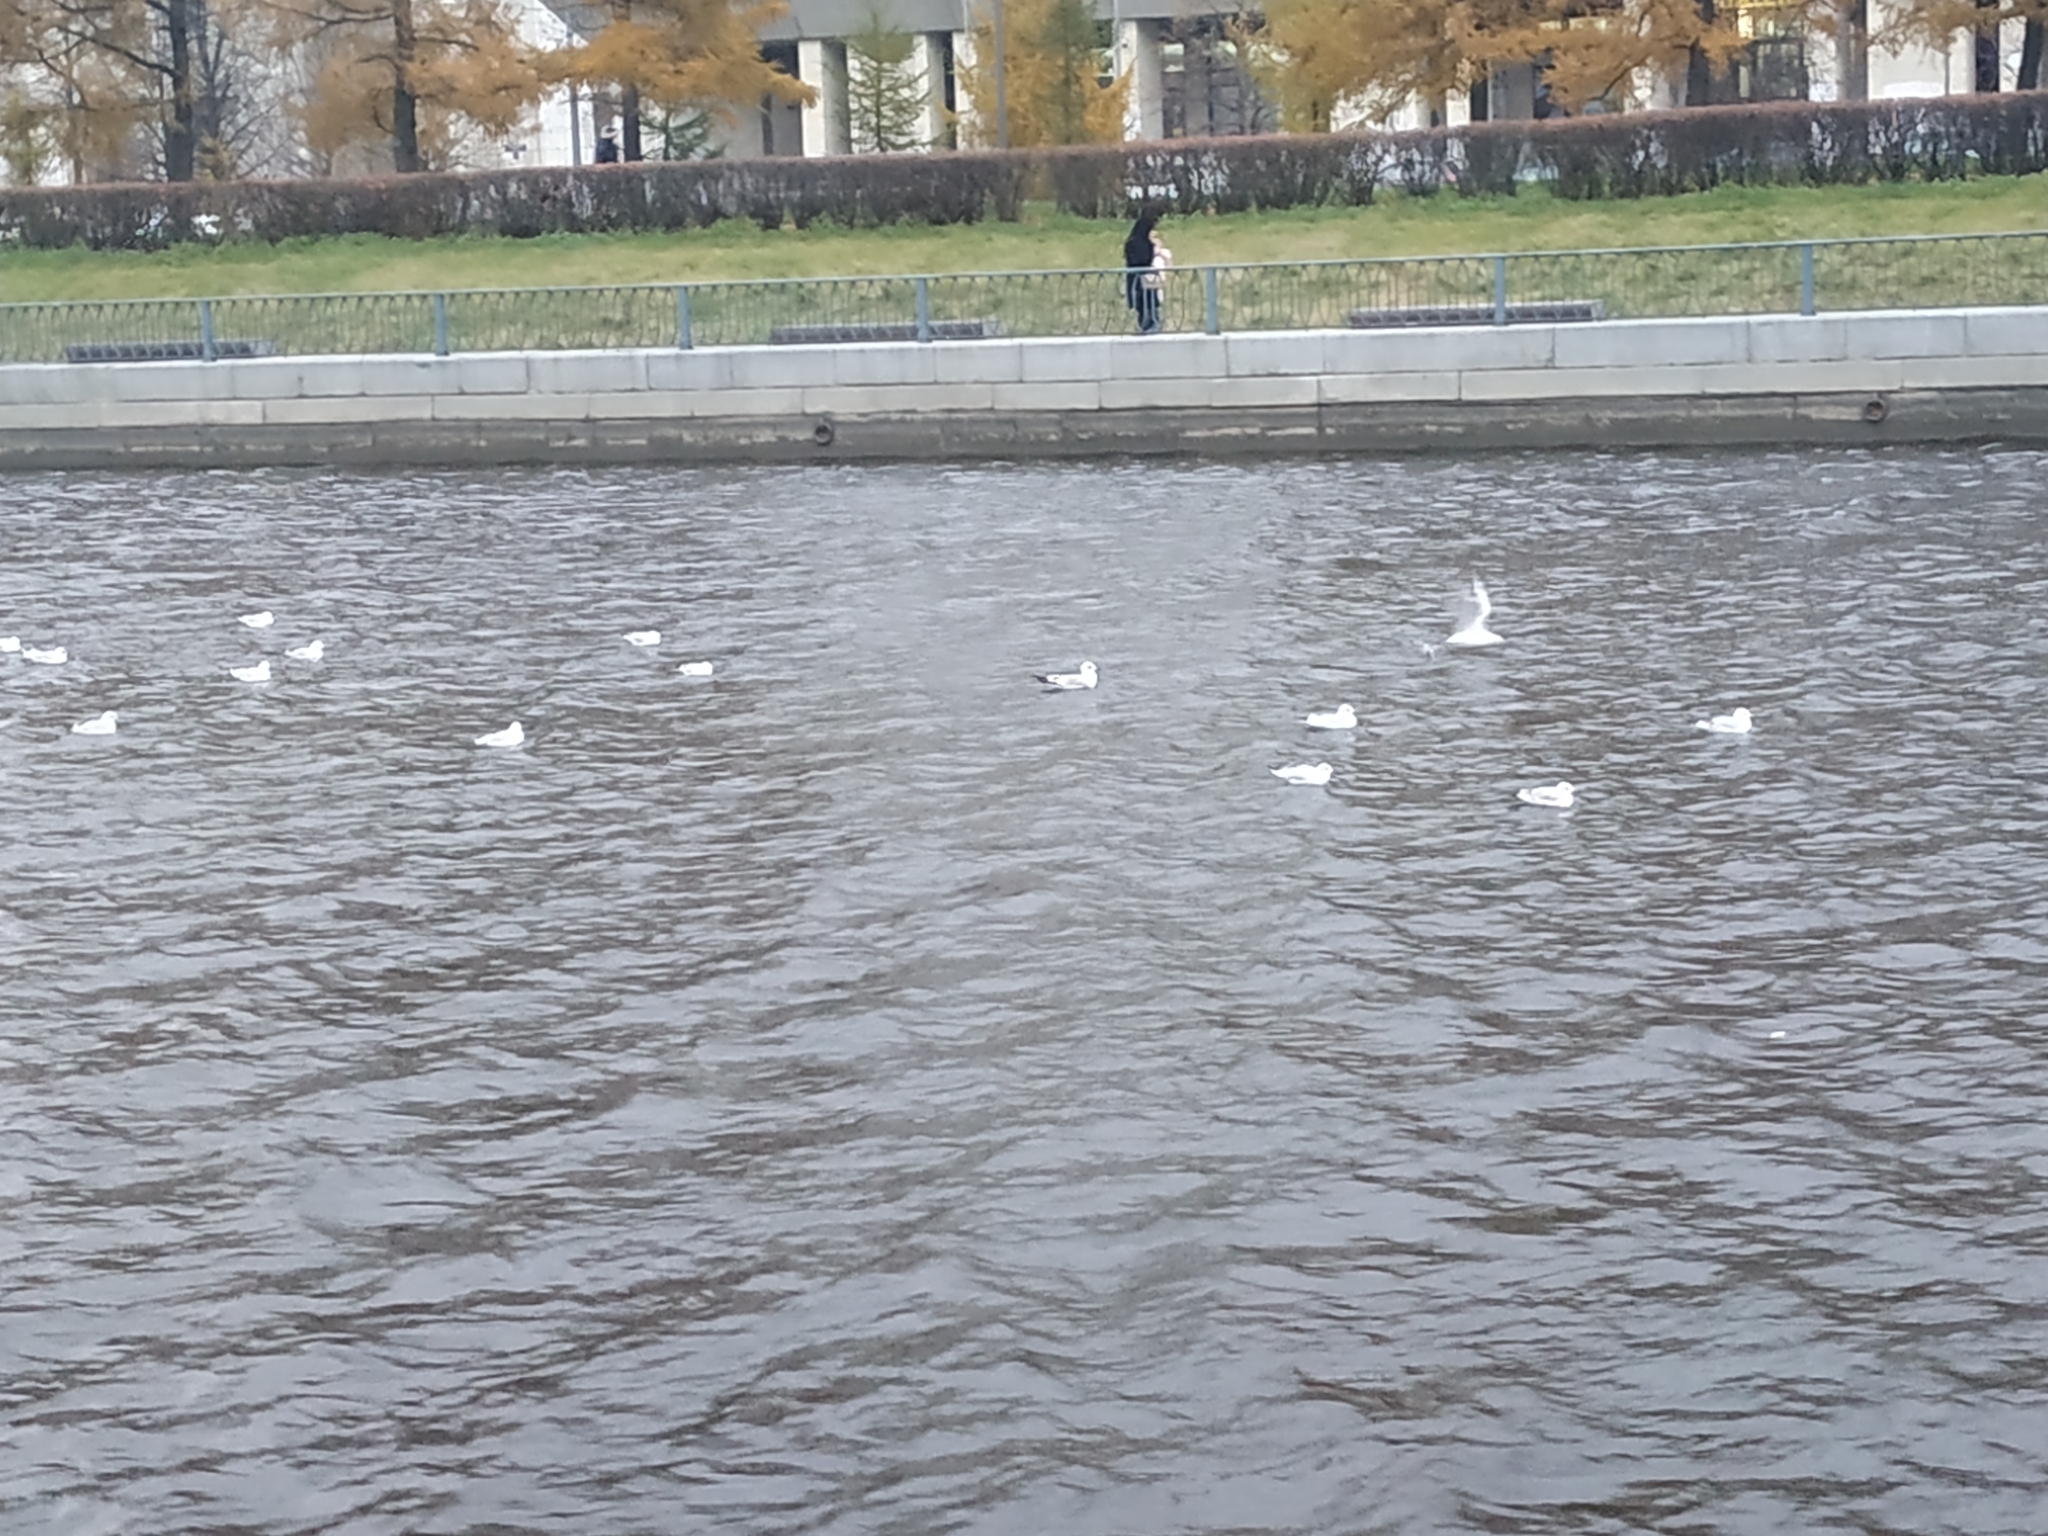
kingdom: Animalia
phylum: Chordata
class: Aves
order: Charadriiformes
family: Laridae
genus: Larus
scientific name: Larus canus
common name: Mew gull
